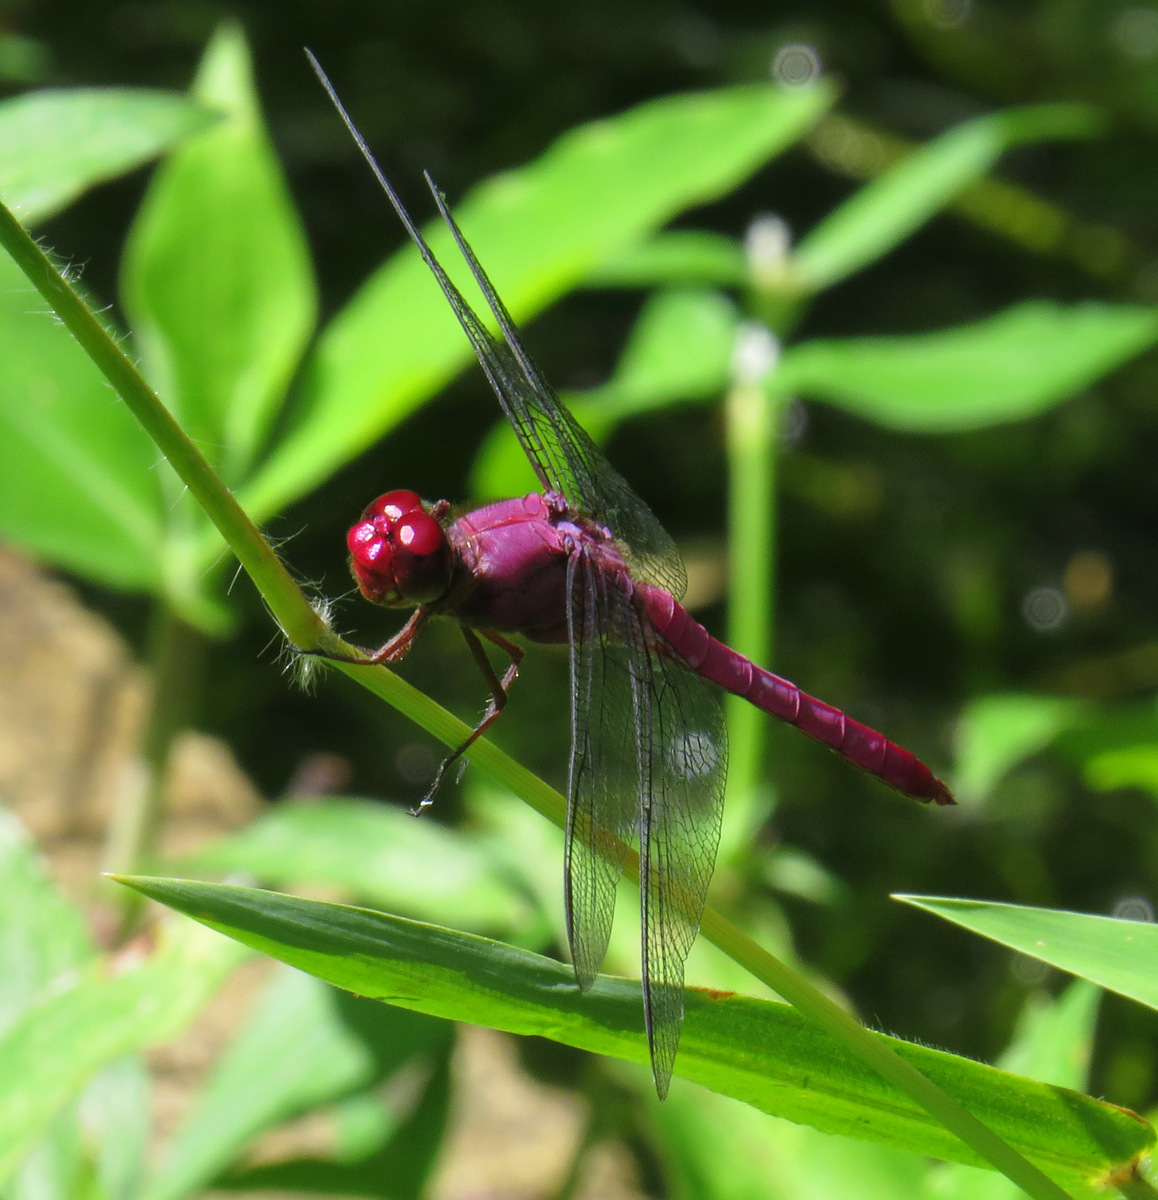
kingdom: Animalia
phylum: Arthropoda
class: Insecta
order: Odonata
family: Libellulidae
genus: Orthemis
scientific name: Orthemis discolor
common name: Carmine skimmer
